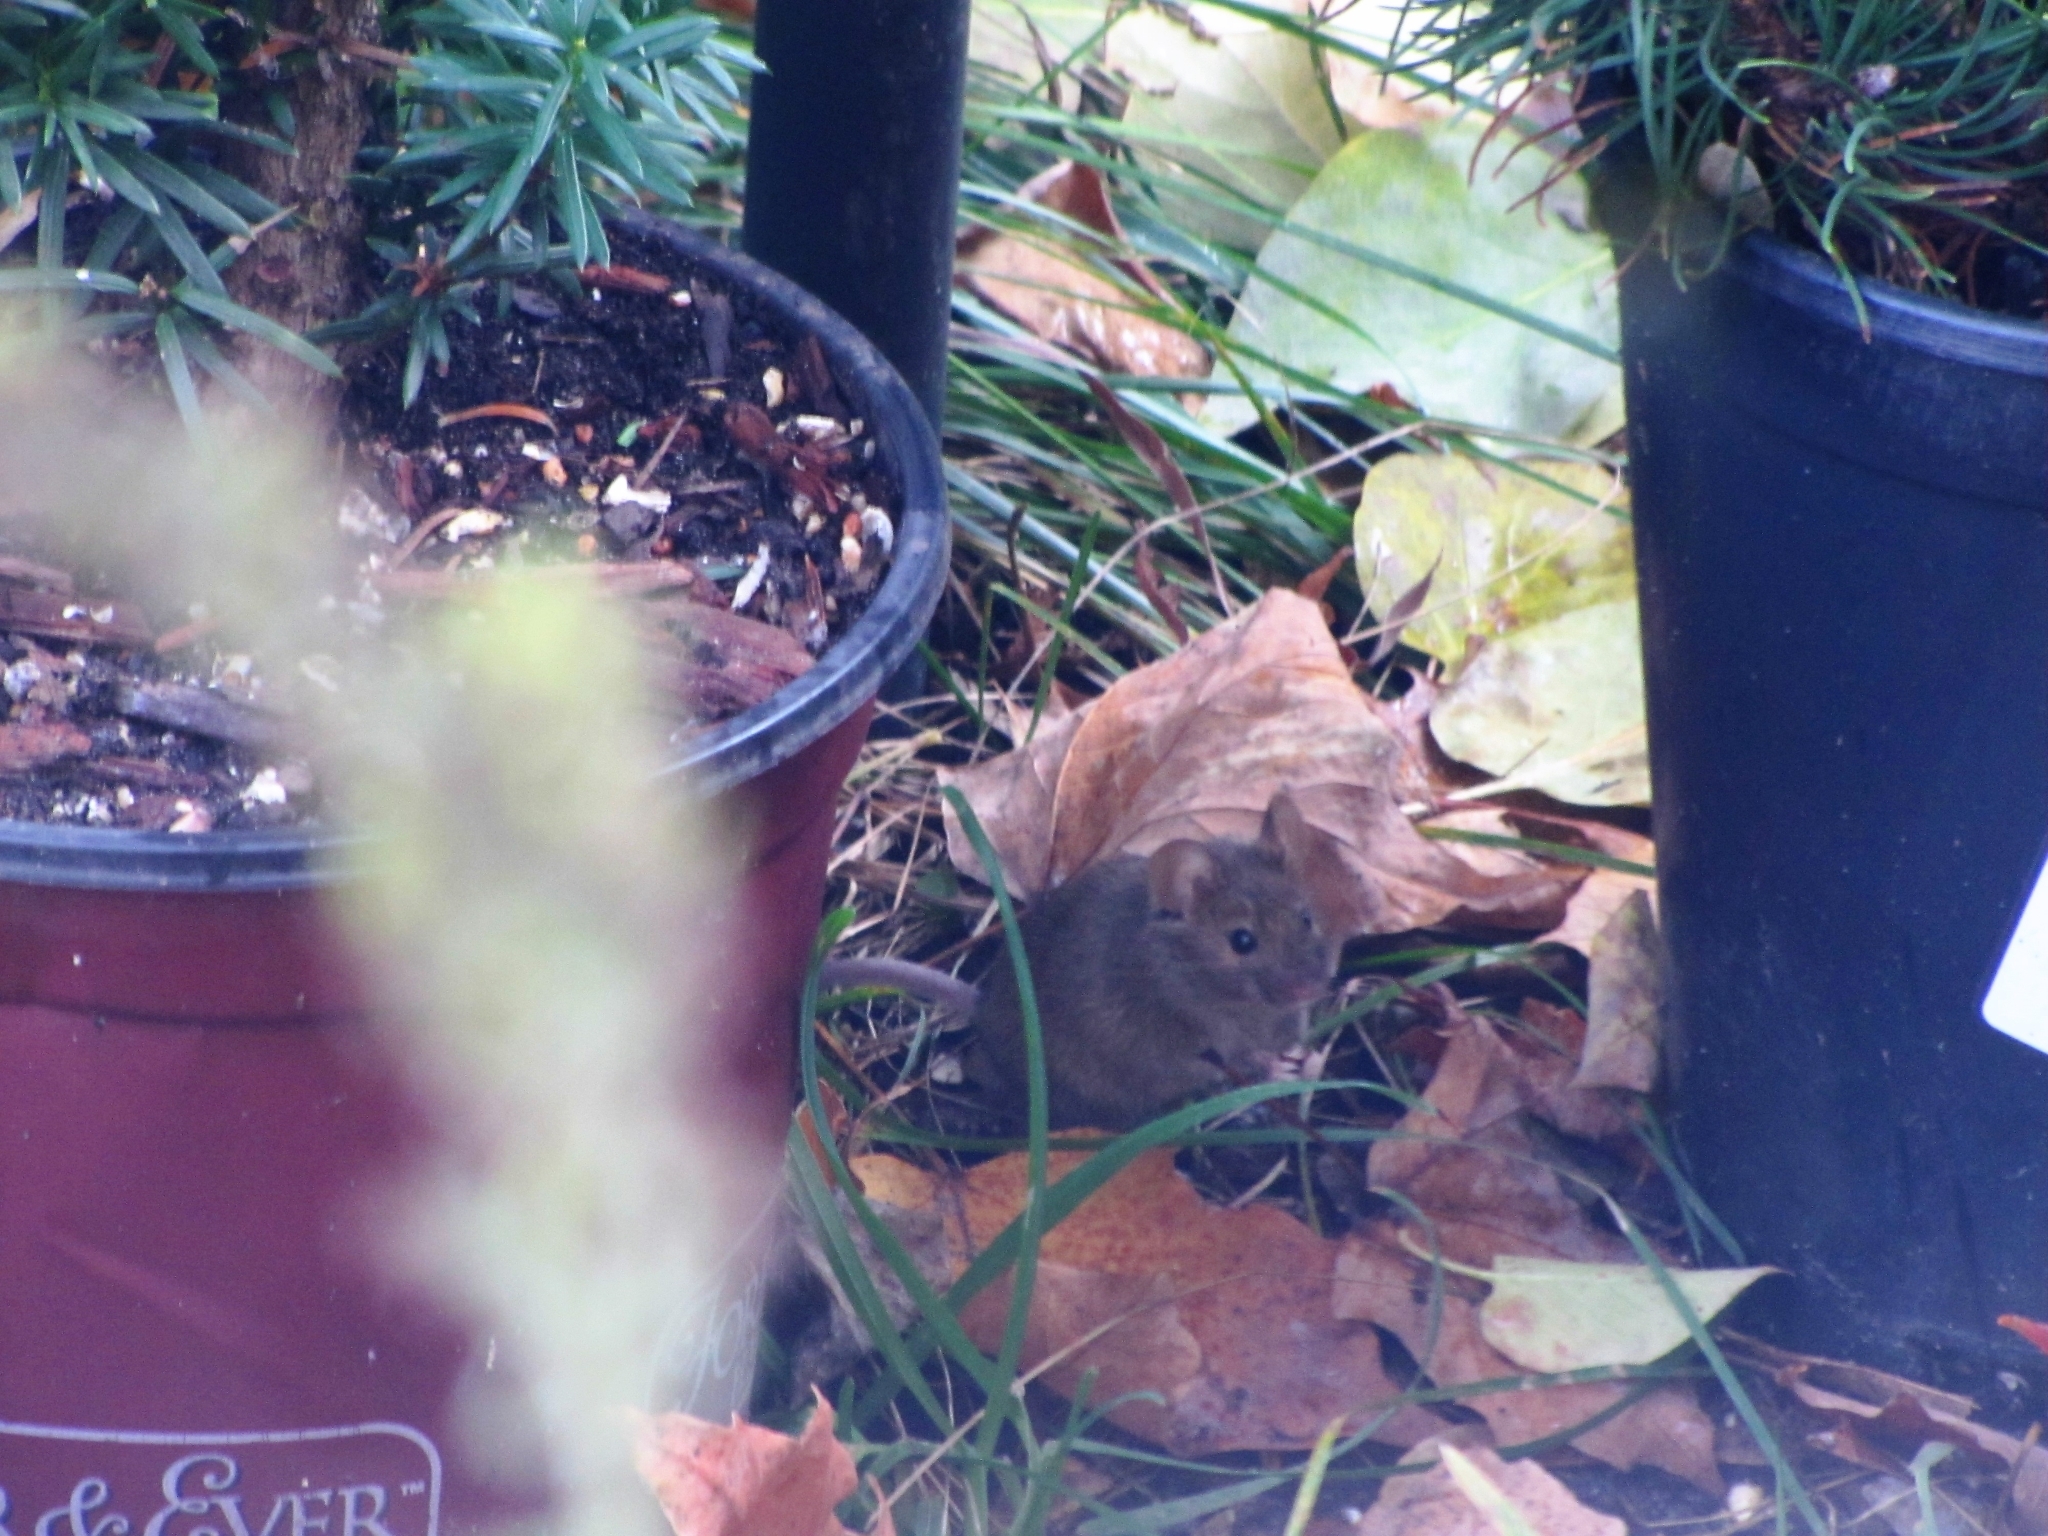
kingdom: Animalia
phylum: Chordata
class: Mammalia
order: Rodentia
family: Muridae
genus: Mus
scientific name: Mus musculus
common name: House mouse
